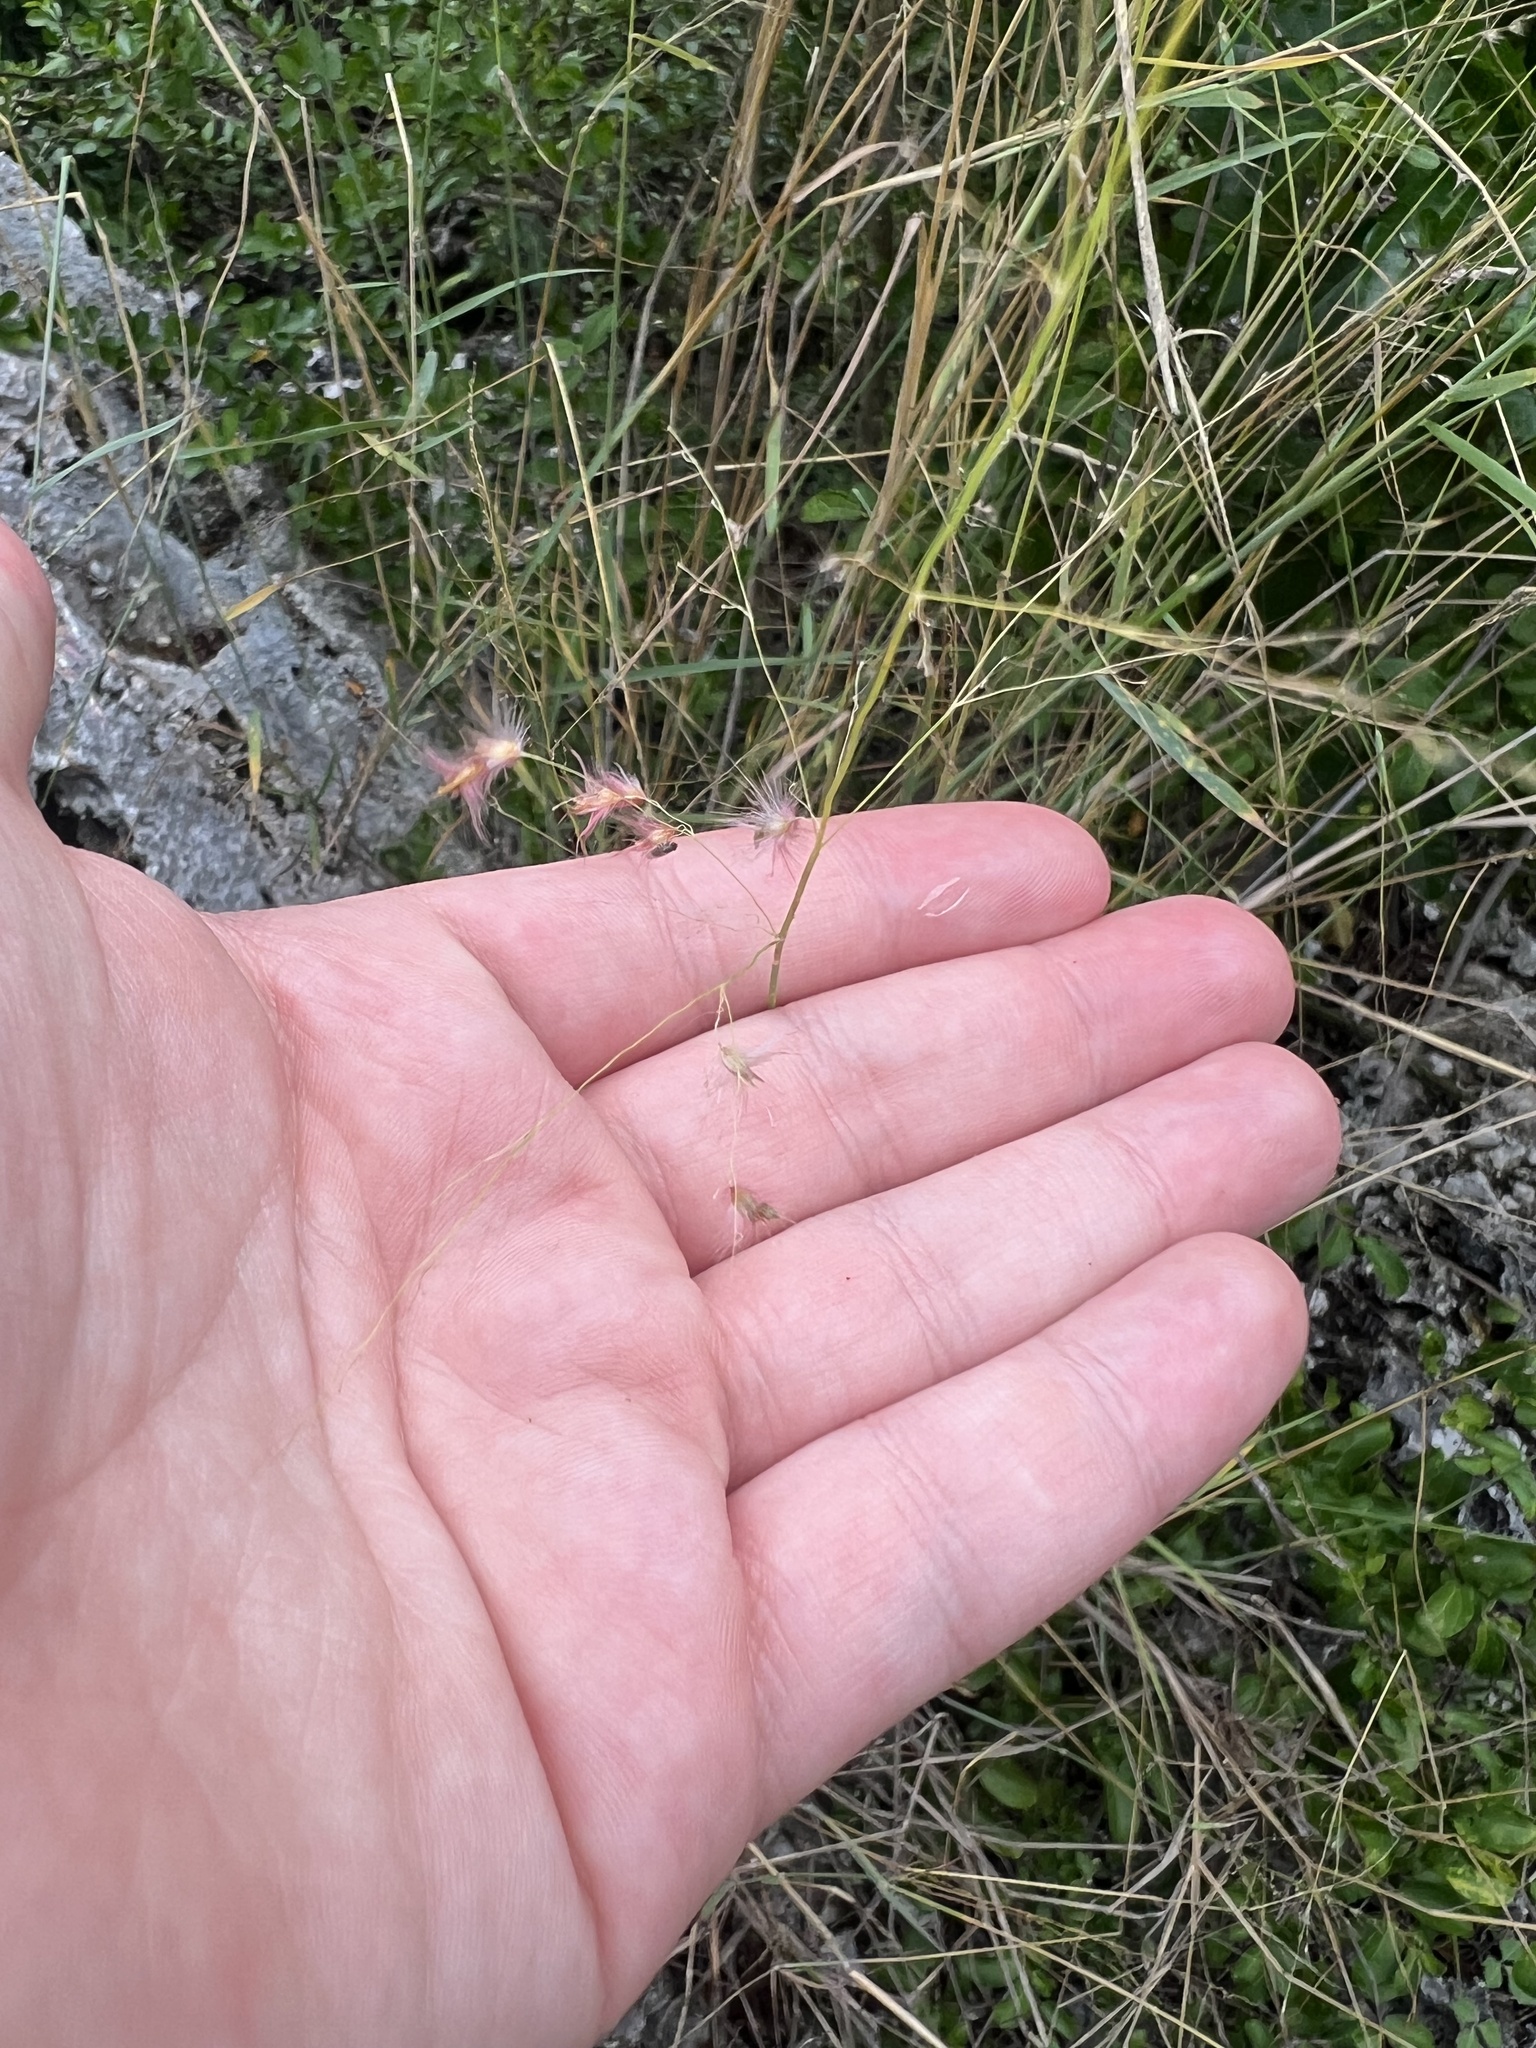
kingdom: Plantae
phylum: Tracheophyta
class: Liliopsida
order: Poales
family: Poaceae
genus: Melinis
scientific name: Melinis repens
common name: Rose natal grass
